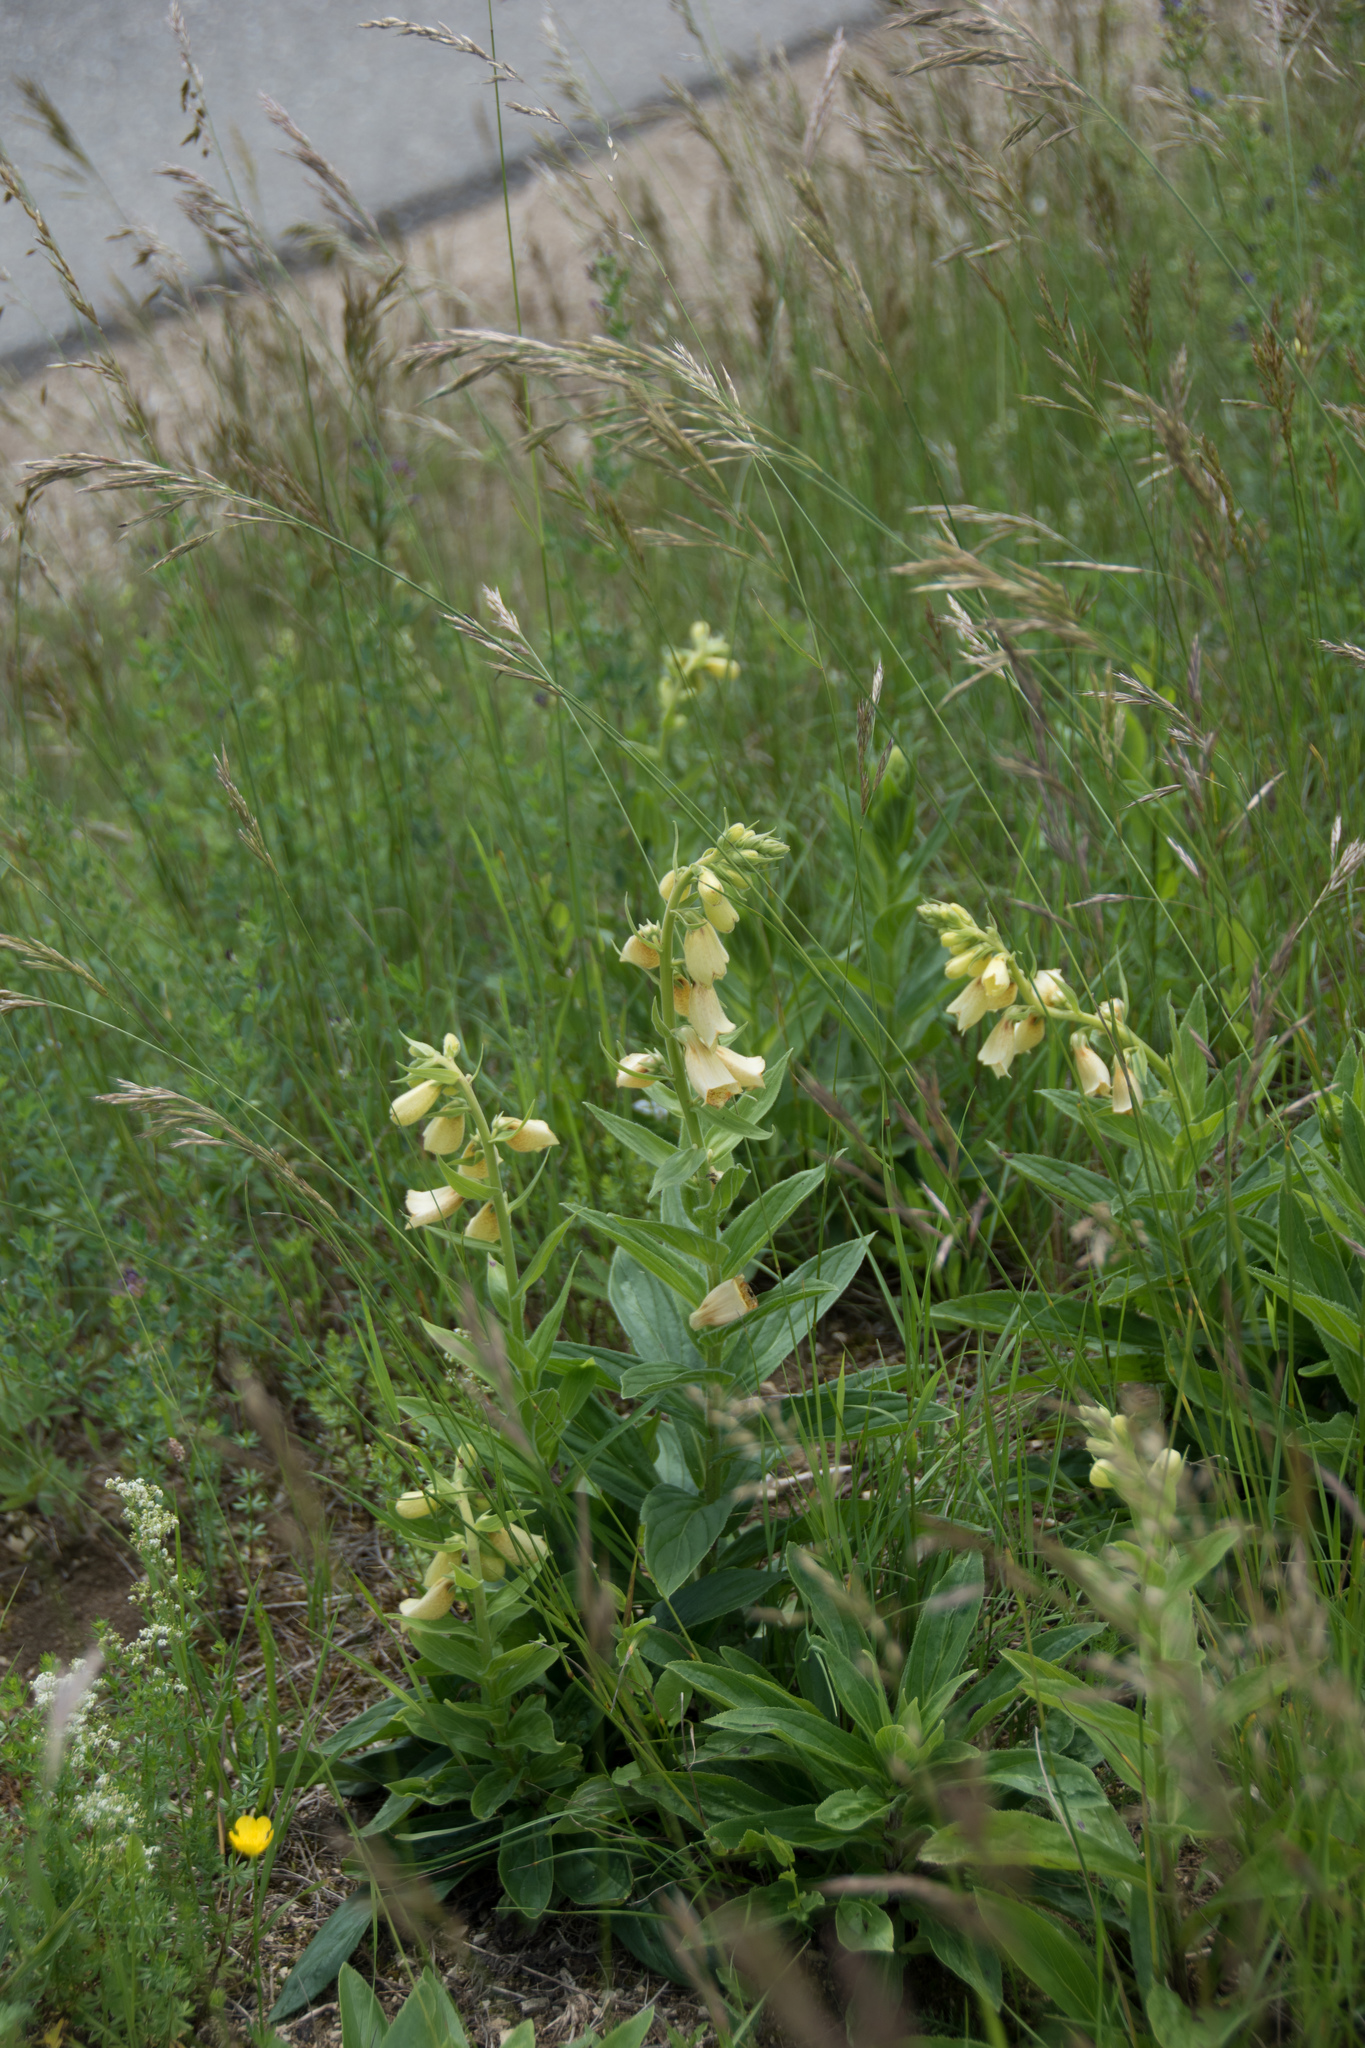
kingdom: Plantae
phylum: Tracheophyta
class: Magnoliopsida
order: Lamiales
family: Plantaginaceae
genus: Digitalis
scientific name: Digitalis grandiflora
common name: Yellow foxglove
